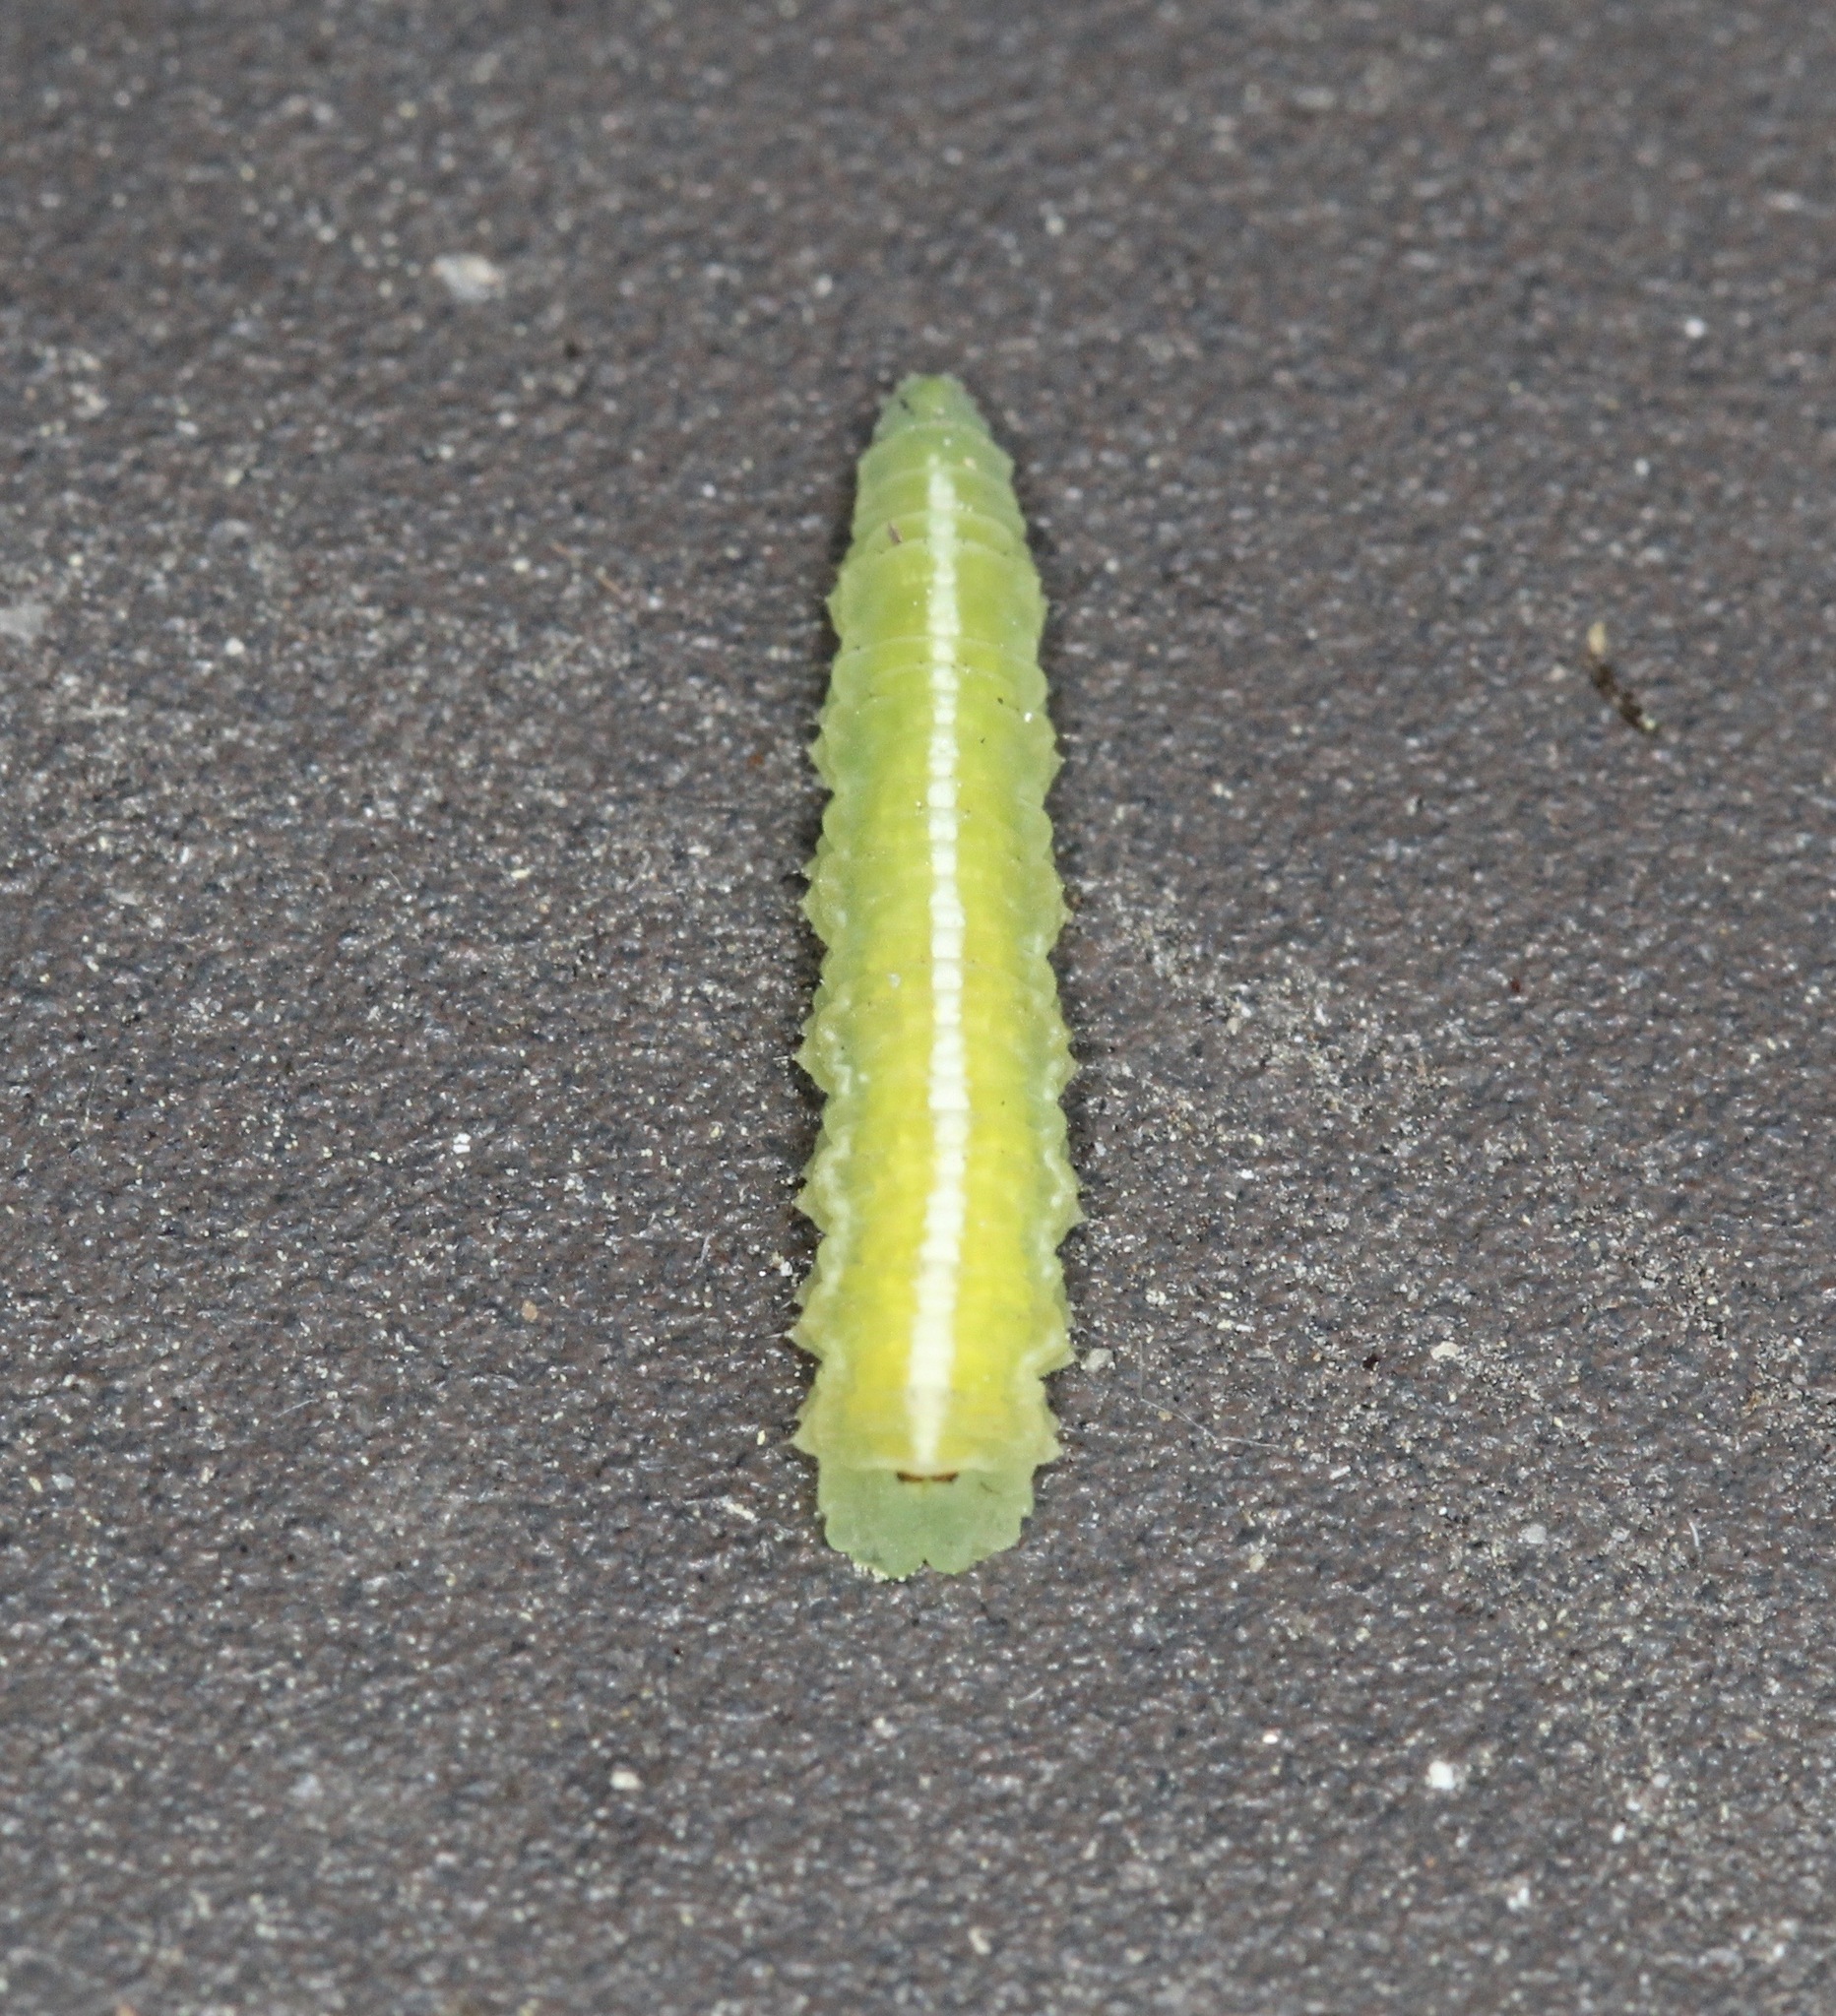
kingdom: Animalia
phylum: Arthropoda
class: Insecta
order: Diptera
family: Syrphidae
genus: Scaeva
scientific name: Scaeva affinis
